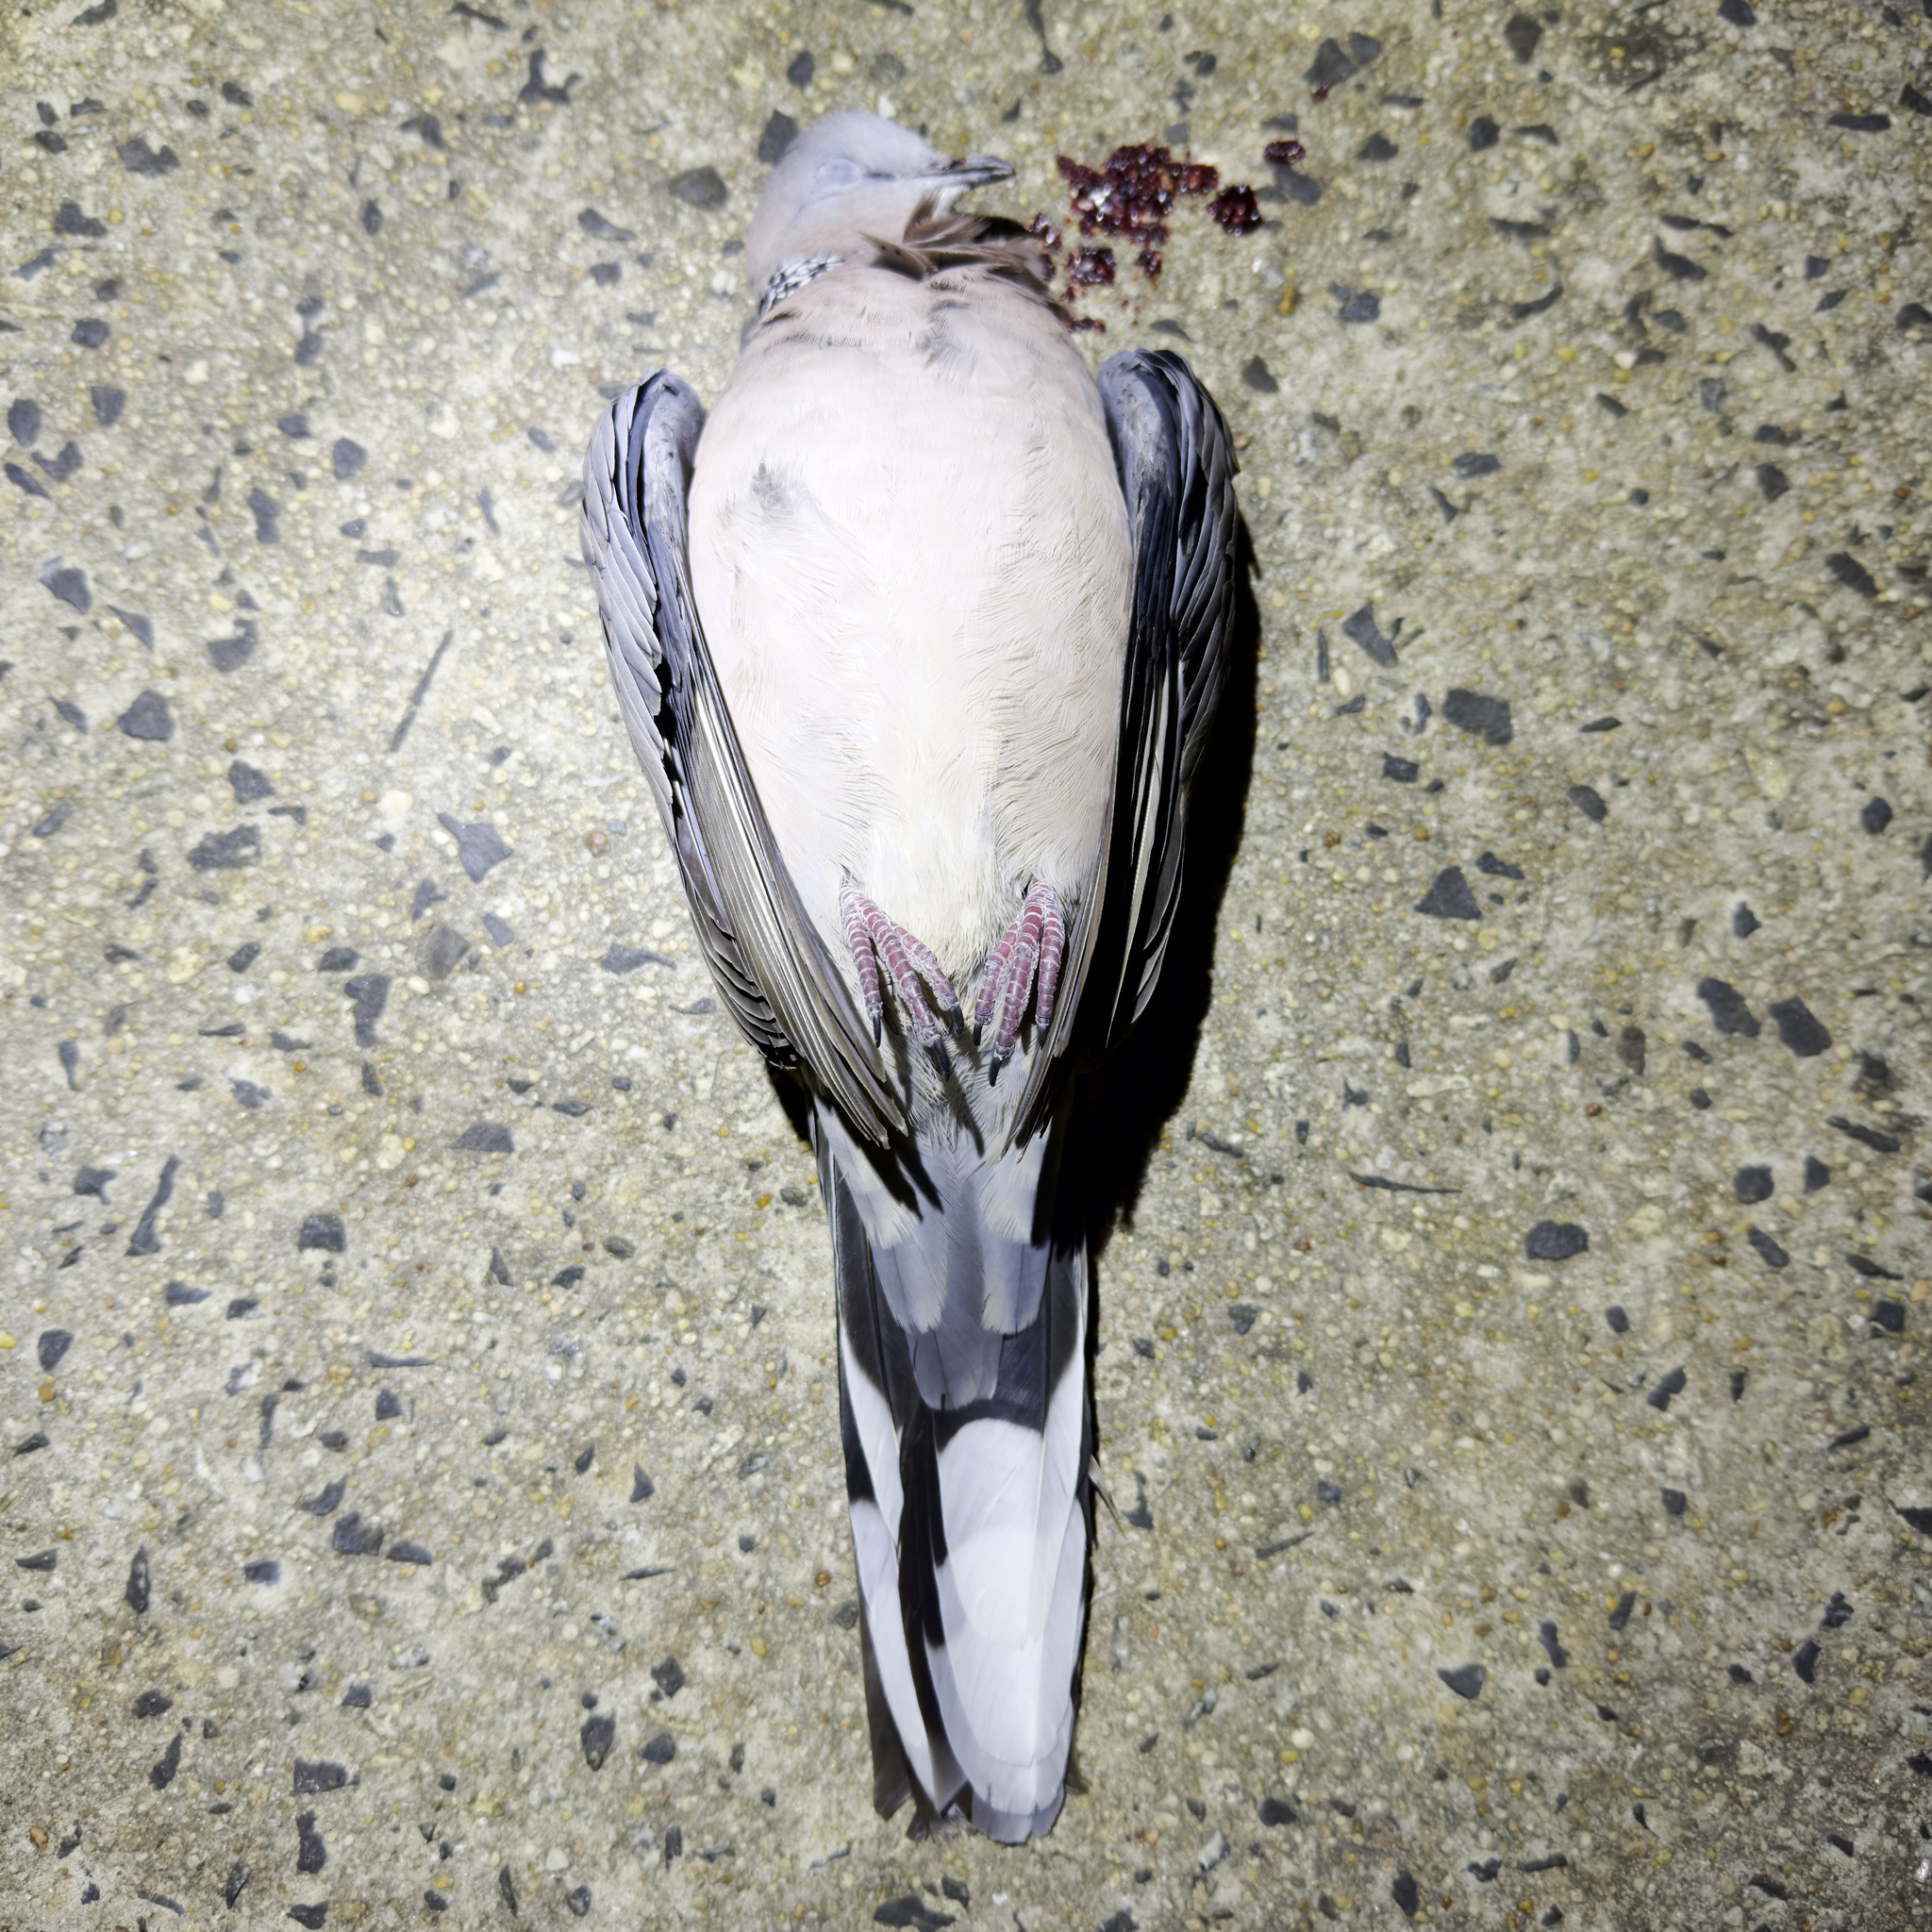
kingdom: Animalia
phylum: Chordata
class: Aves
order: Columbiformes
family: Columbidae
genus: Spilopelia
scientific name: Spilopelia chinensis
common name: Spotted dove
